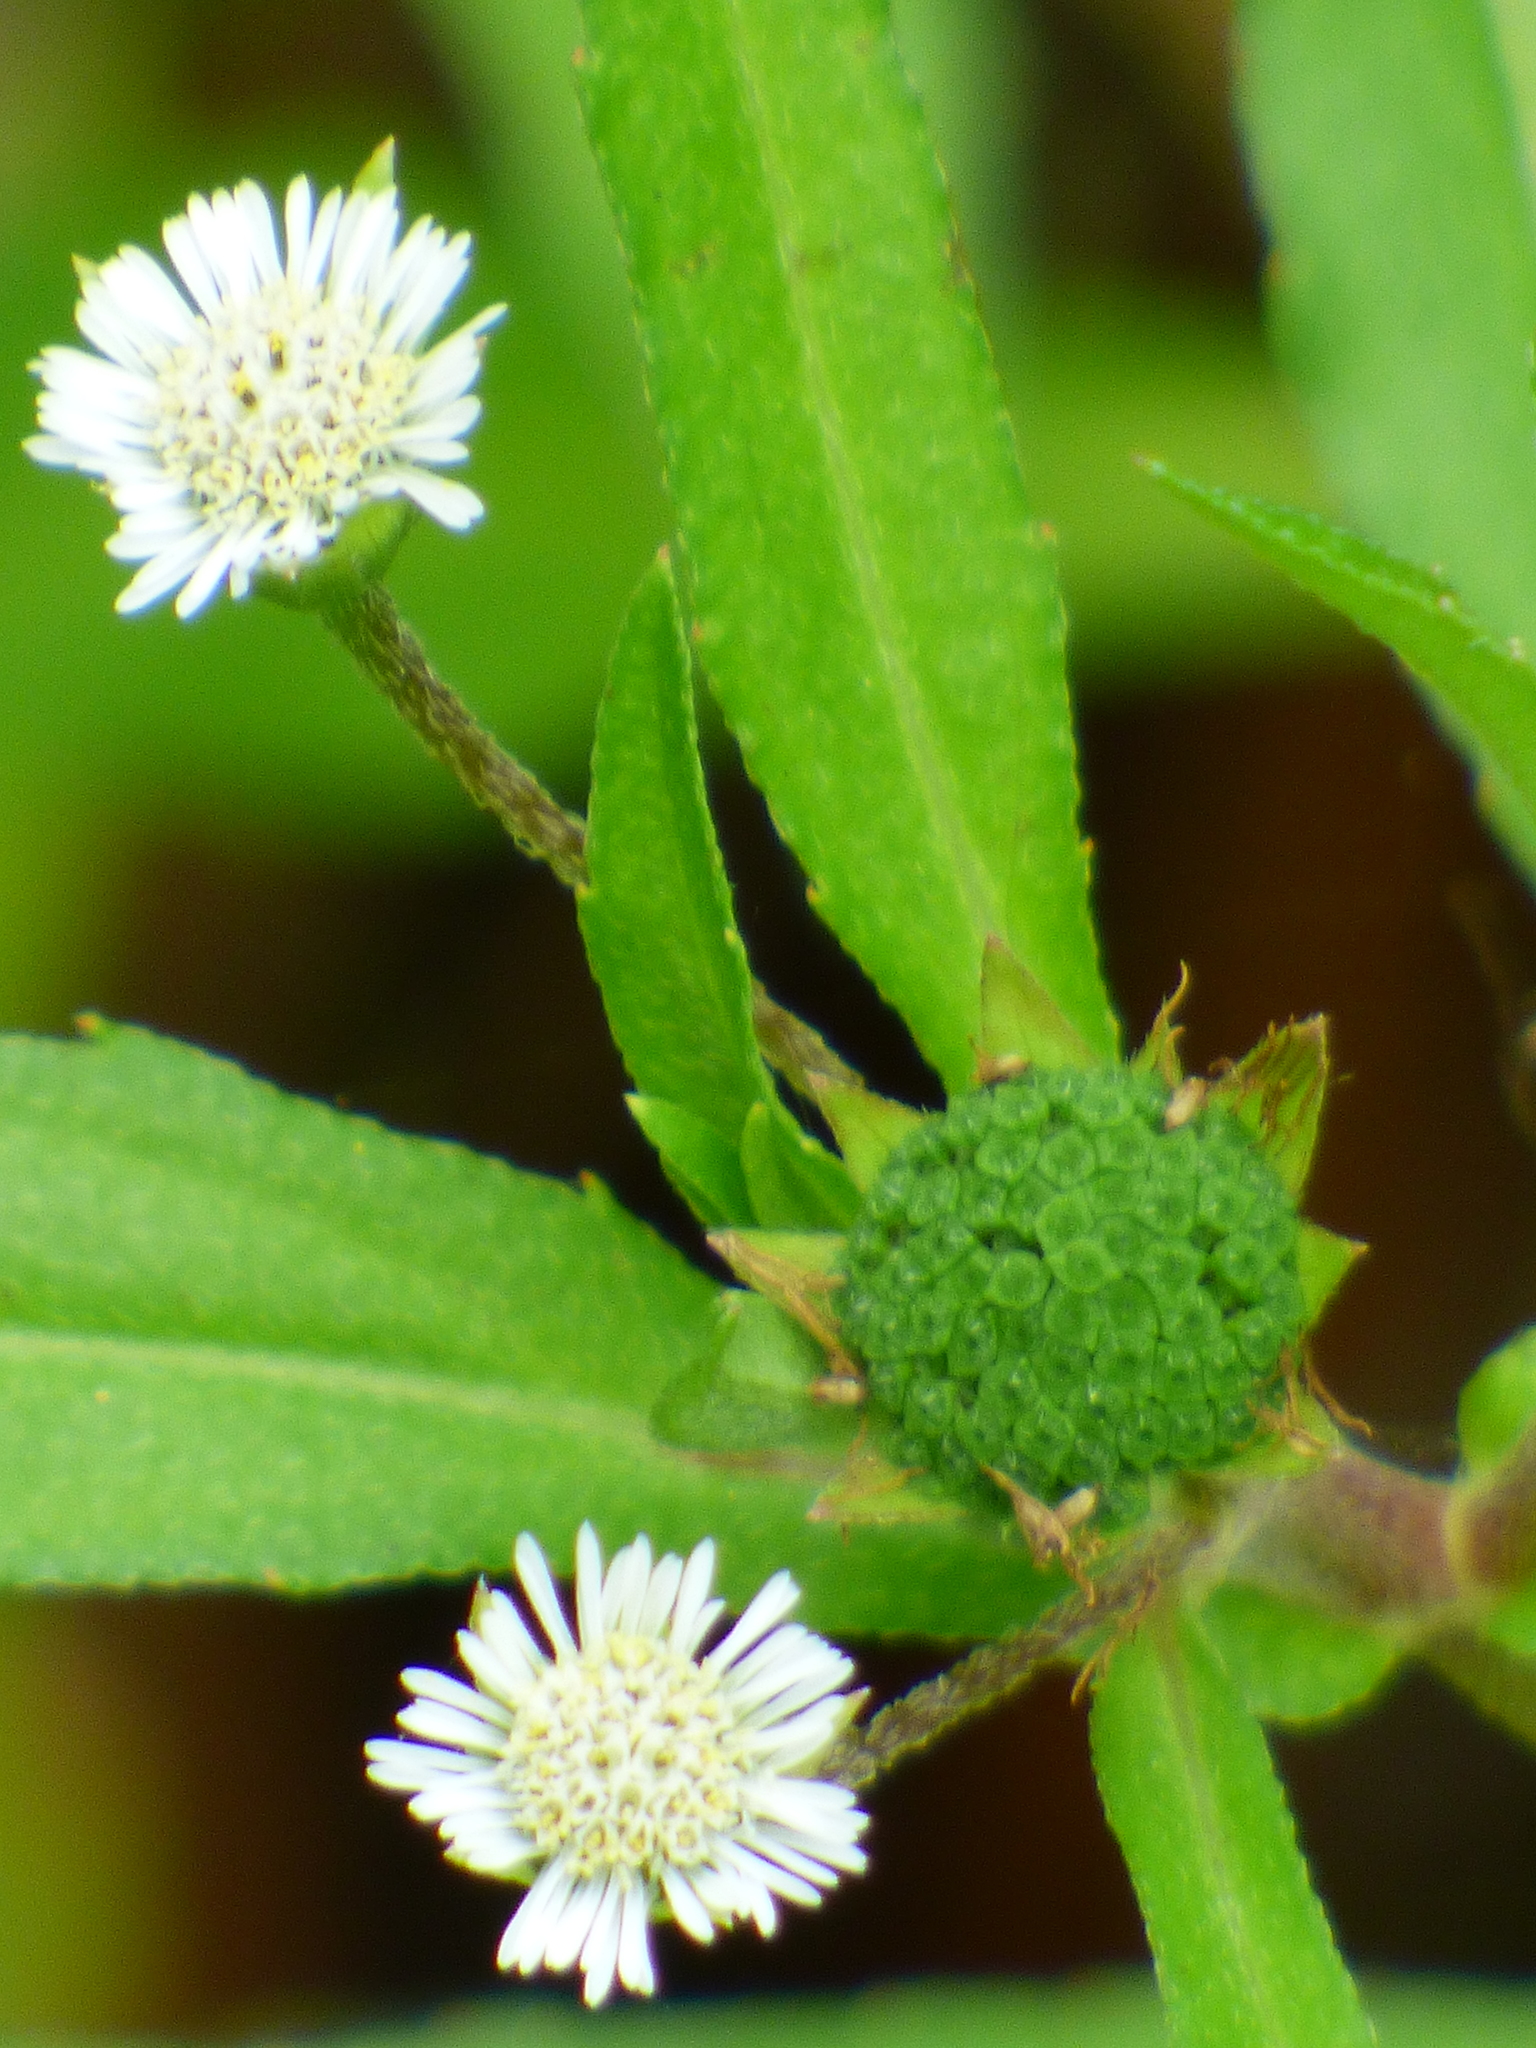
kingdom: Plantae
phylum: Tracheophyta
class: Magnoliopsida
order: Asterales
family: Asteraceae
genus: Eclipta
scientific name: Eclipta prostrata
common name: False daisy
